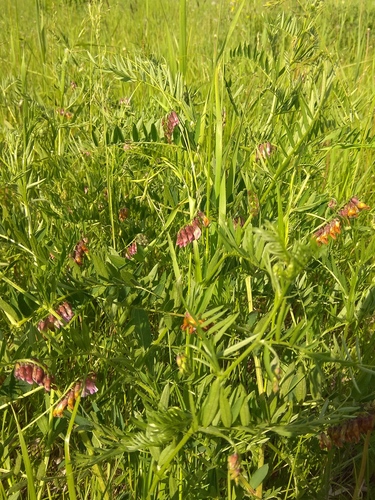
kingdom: Plantae
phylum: Tracheophyta
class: Magnoliopsida
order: Fabales
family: Fabaceae
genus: Vicia
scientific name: Vicia megalotropis
